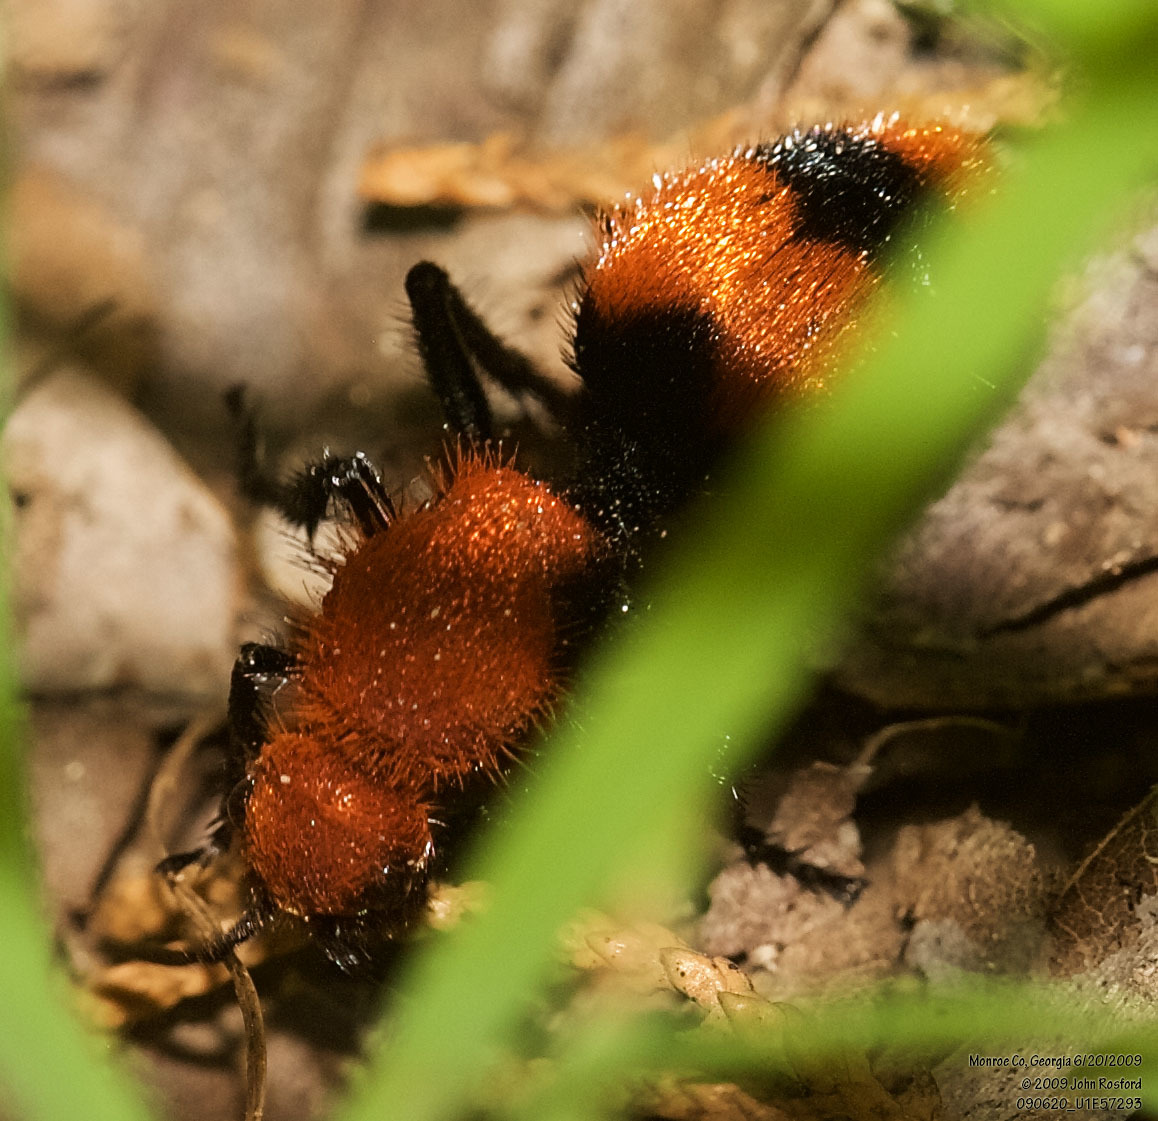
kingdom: Animalia
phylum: Arthropoda
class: Insecta
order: Hymenoptera
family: Mutillidae
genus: Dasymutilla
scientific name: Dasymutilla occidentalis
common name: Common eastern velvet ant
